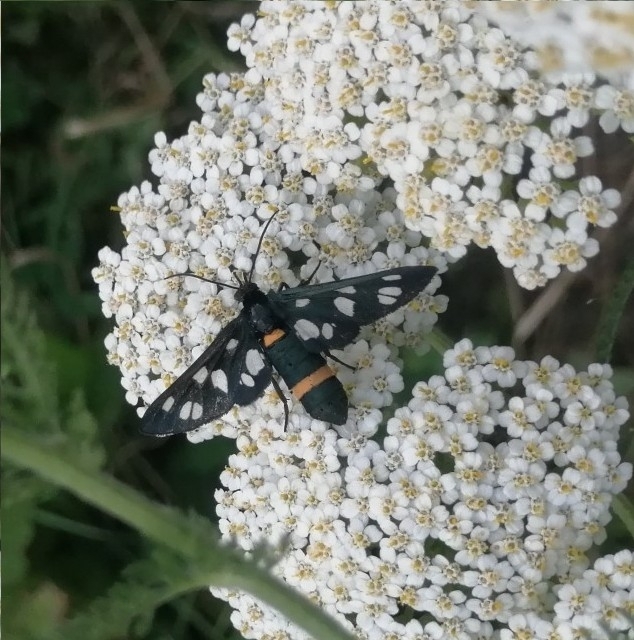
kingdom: Animalia
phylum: Arthropoda
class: Insecta
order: Lepidoptera
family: Erebidae
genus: Amata
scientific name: Amata nigricornis
